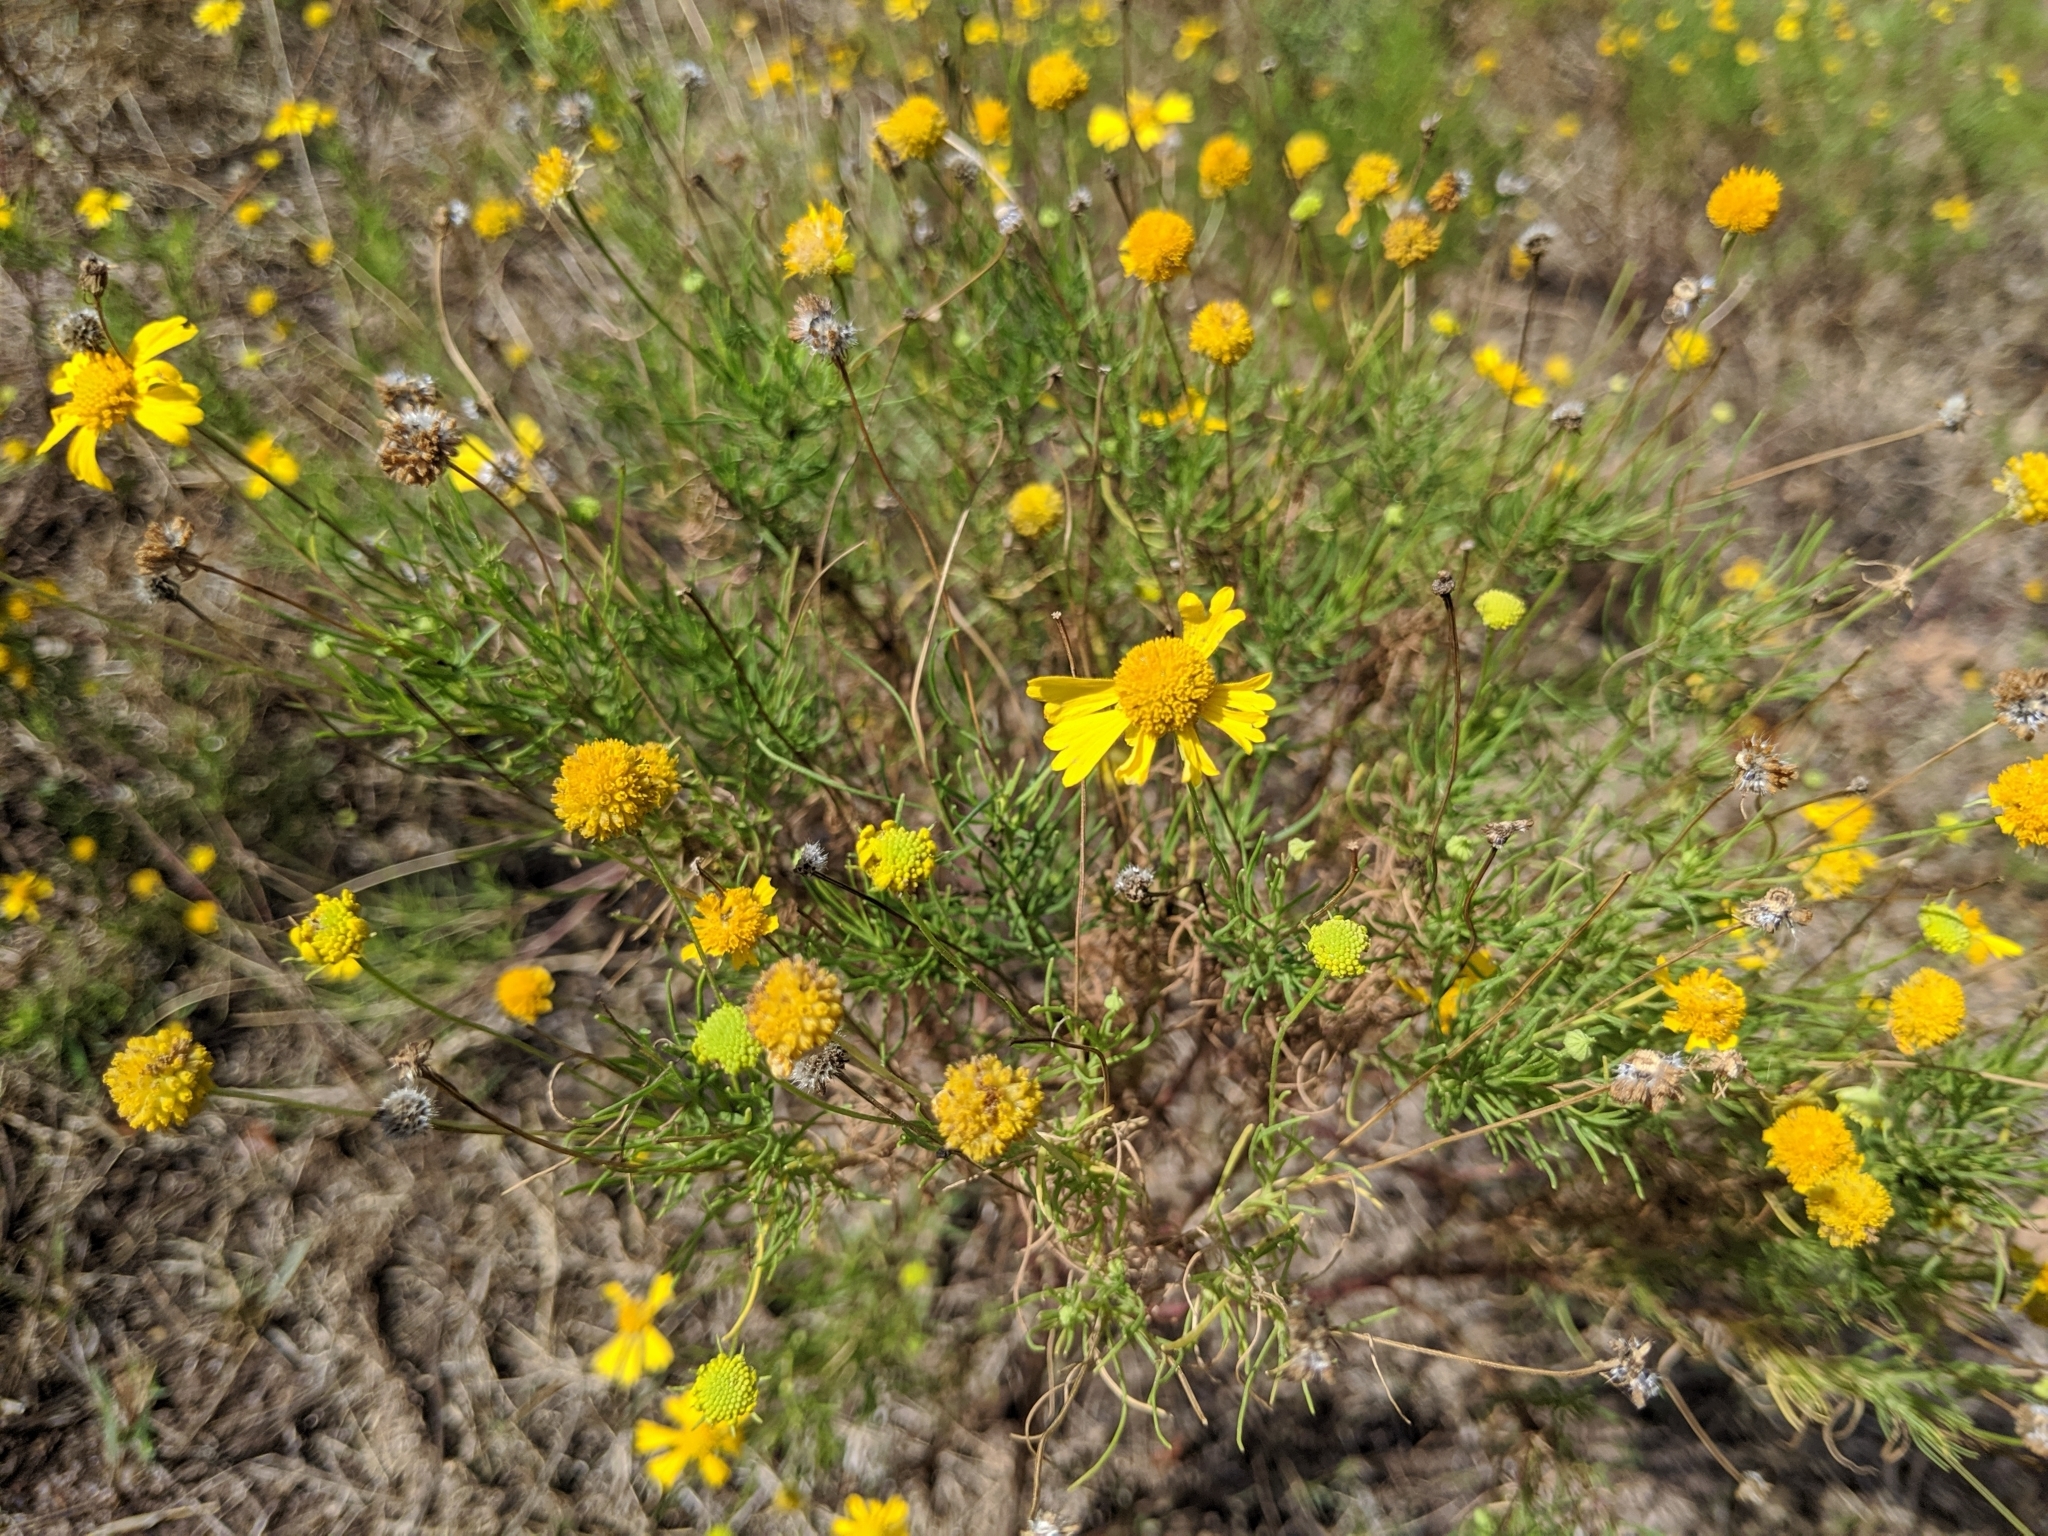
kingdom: Plantae
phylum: Tracheophyta
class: Magnoliopsida
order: Asterales
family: Asteraceae
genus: Helenium
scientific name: Helenium amarum
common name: Bitter sneezeweed
